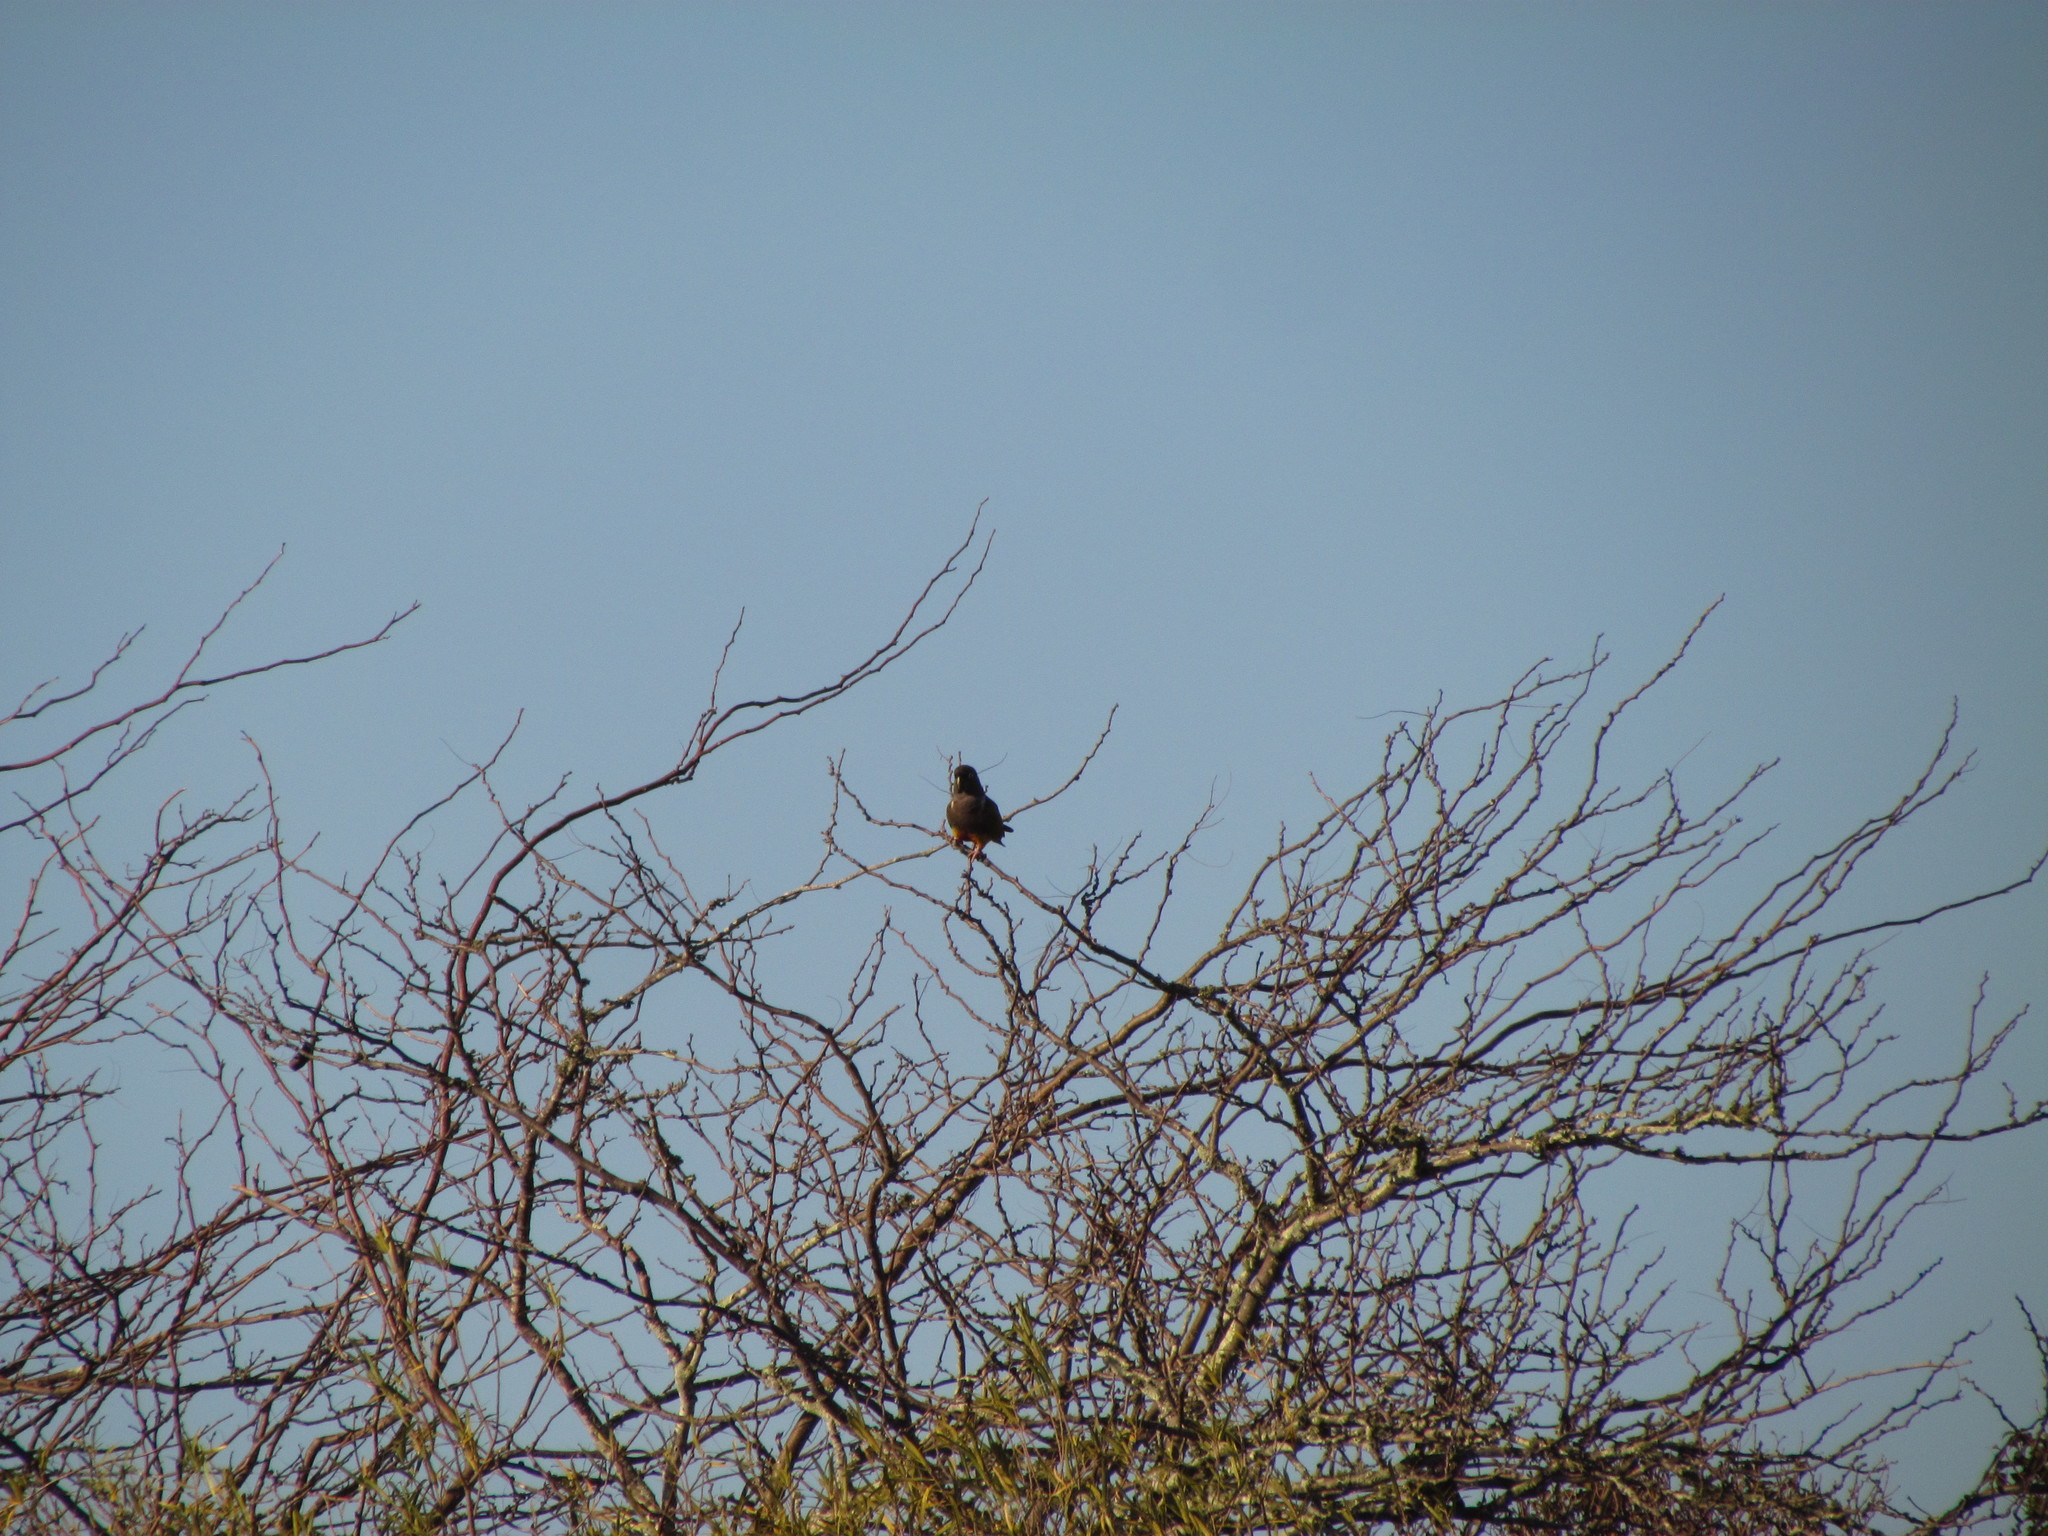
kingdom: Animalia
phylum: Chordata
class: Aves
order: Psittaciformes
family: Psittacidae
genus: Cyanoliseus
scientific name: Cyanoliseus patagonus
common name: Burrowing parrot
